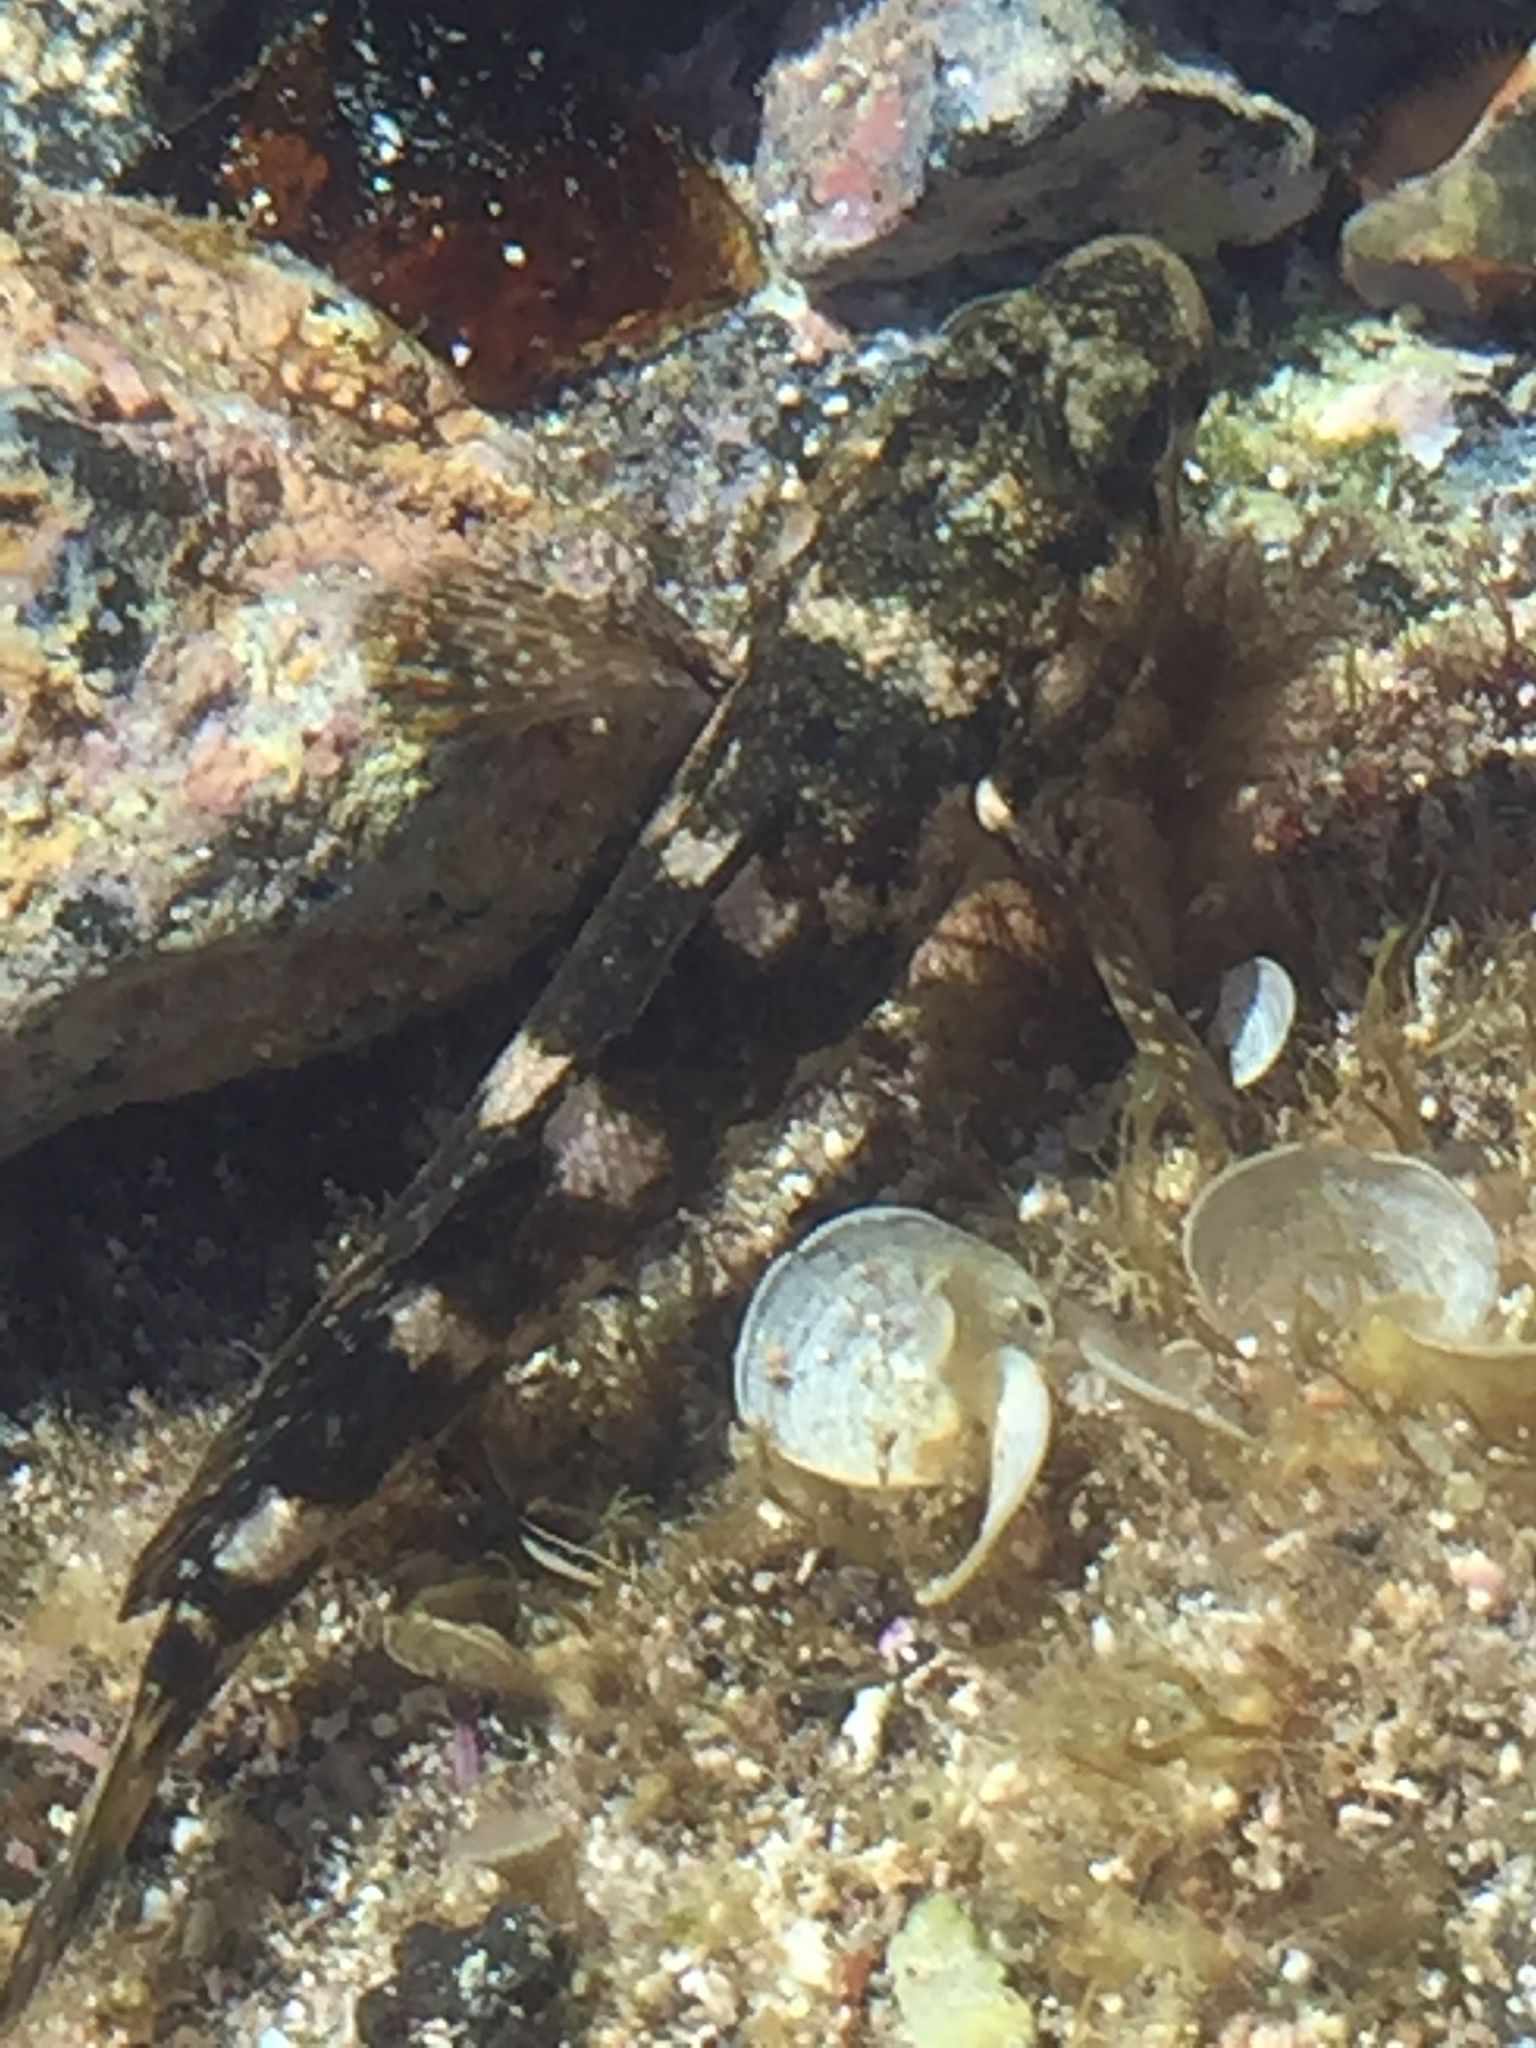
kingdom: Animalia
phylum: Chordata
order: Perciformes
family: Gobiidae
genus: Mauligobius
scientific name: Mauligobius maderensis
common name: Rock goby
